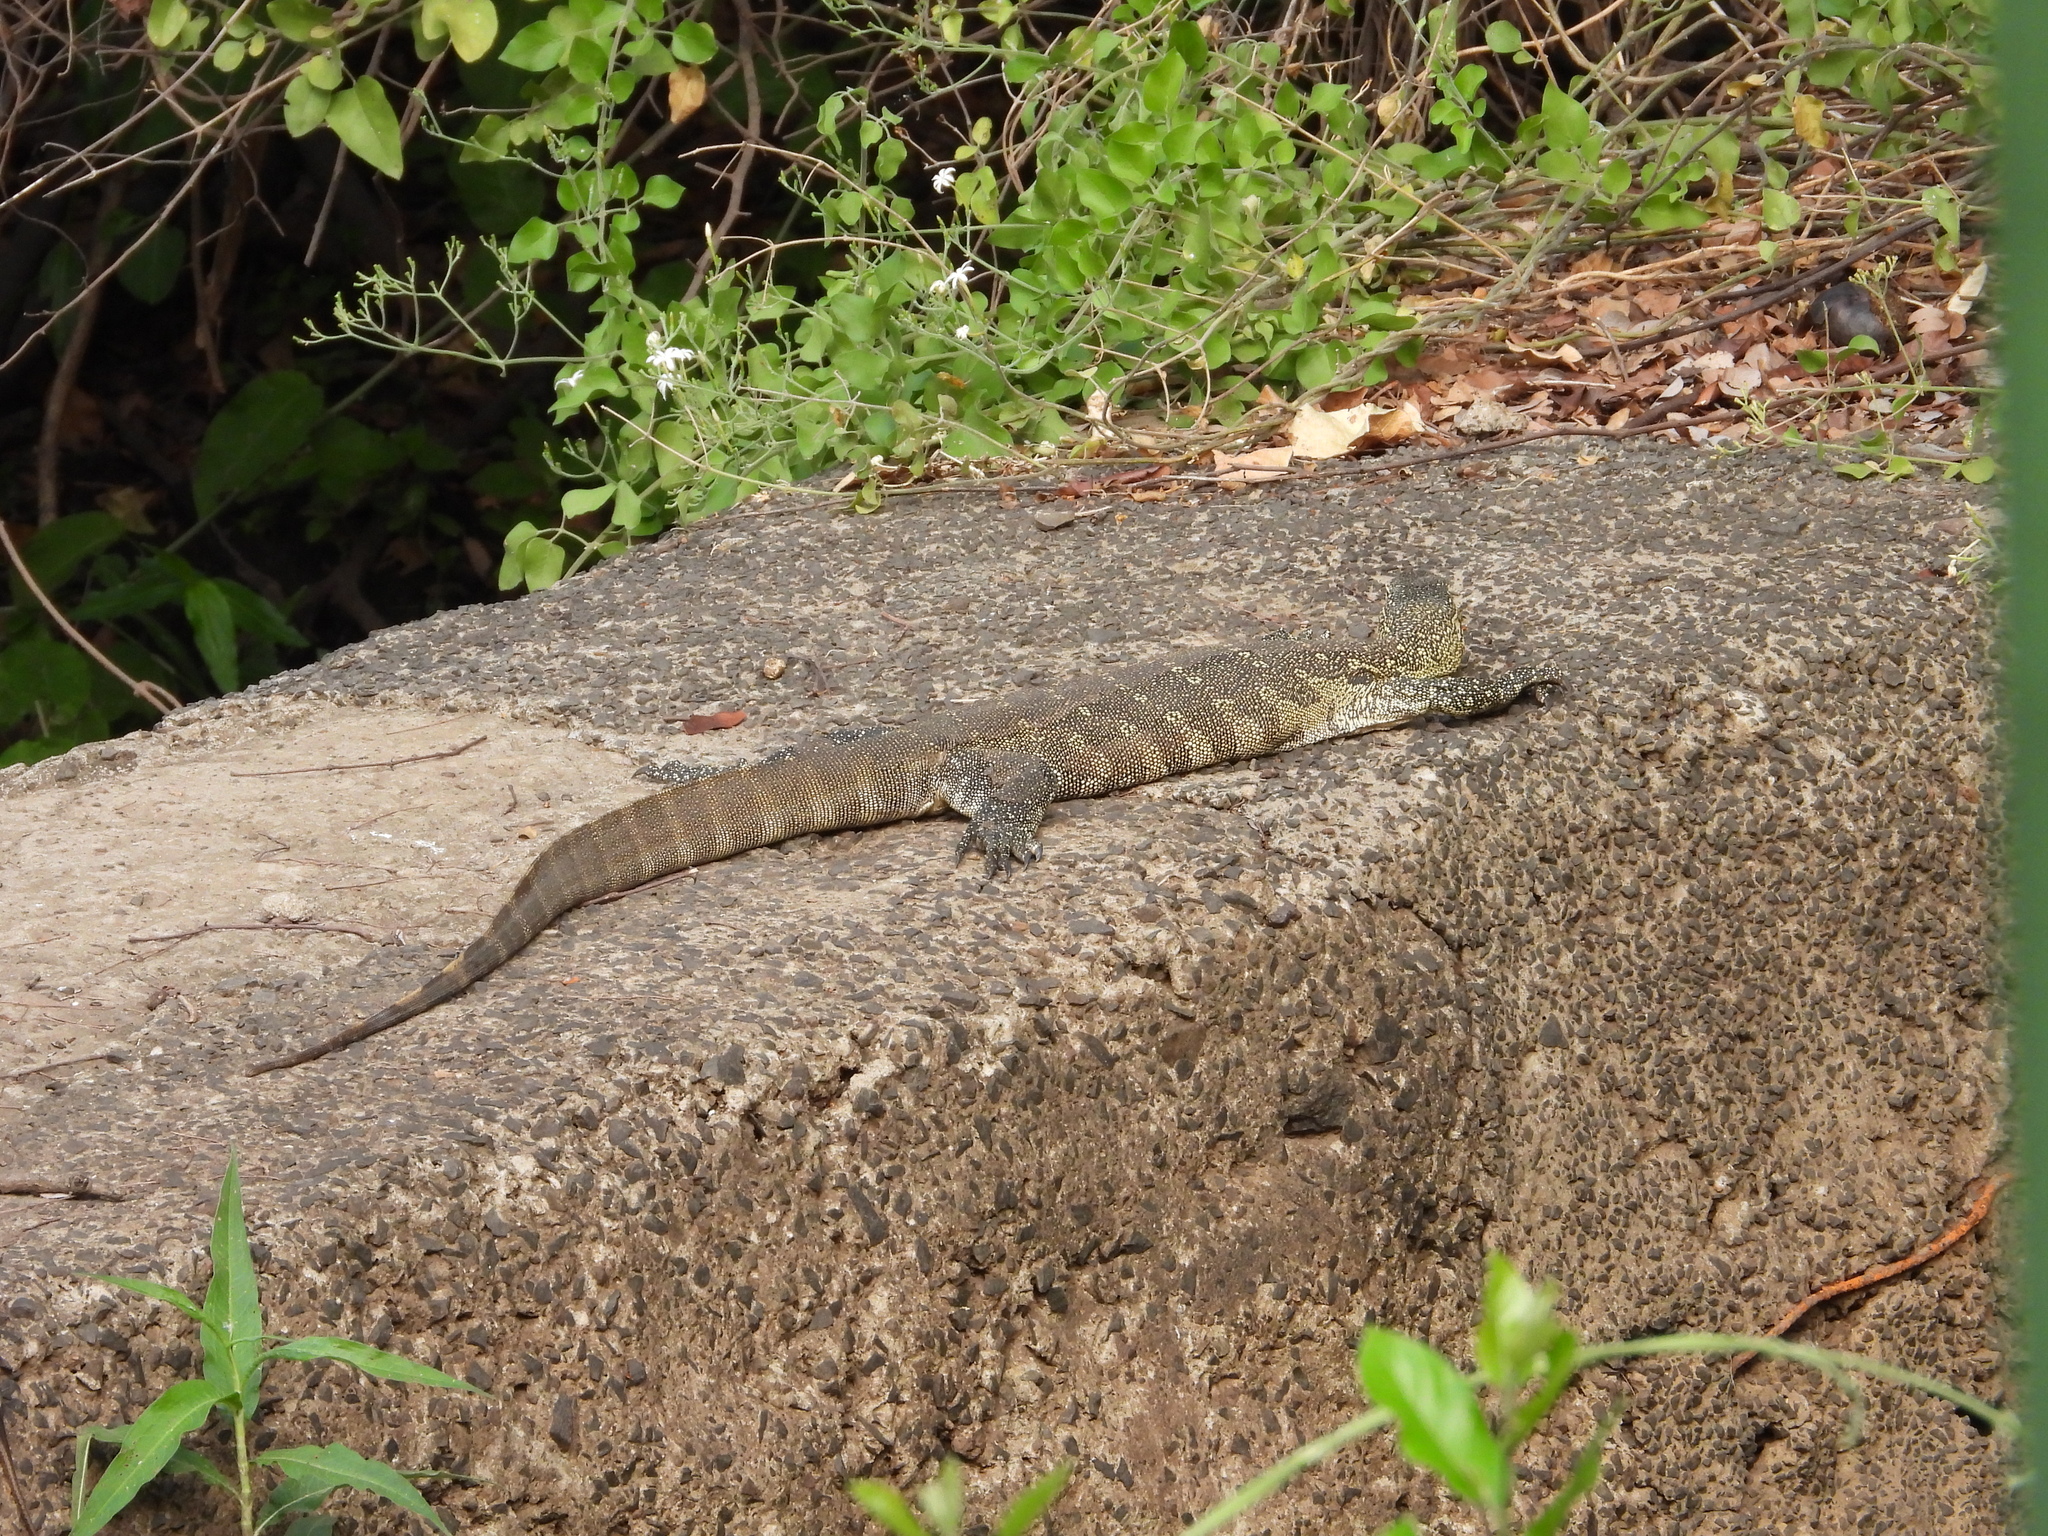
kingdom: Animalia
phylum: Chordata
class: Squamata
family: Varanidae
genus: Varanus
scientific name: Varanus niloticus
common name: Nile monitor
